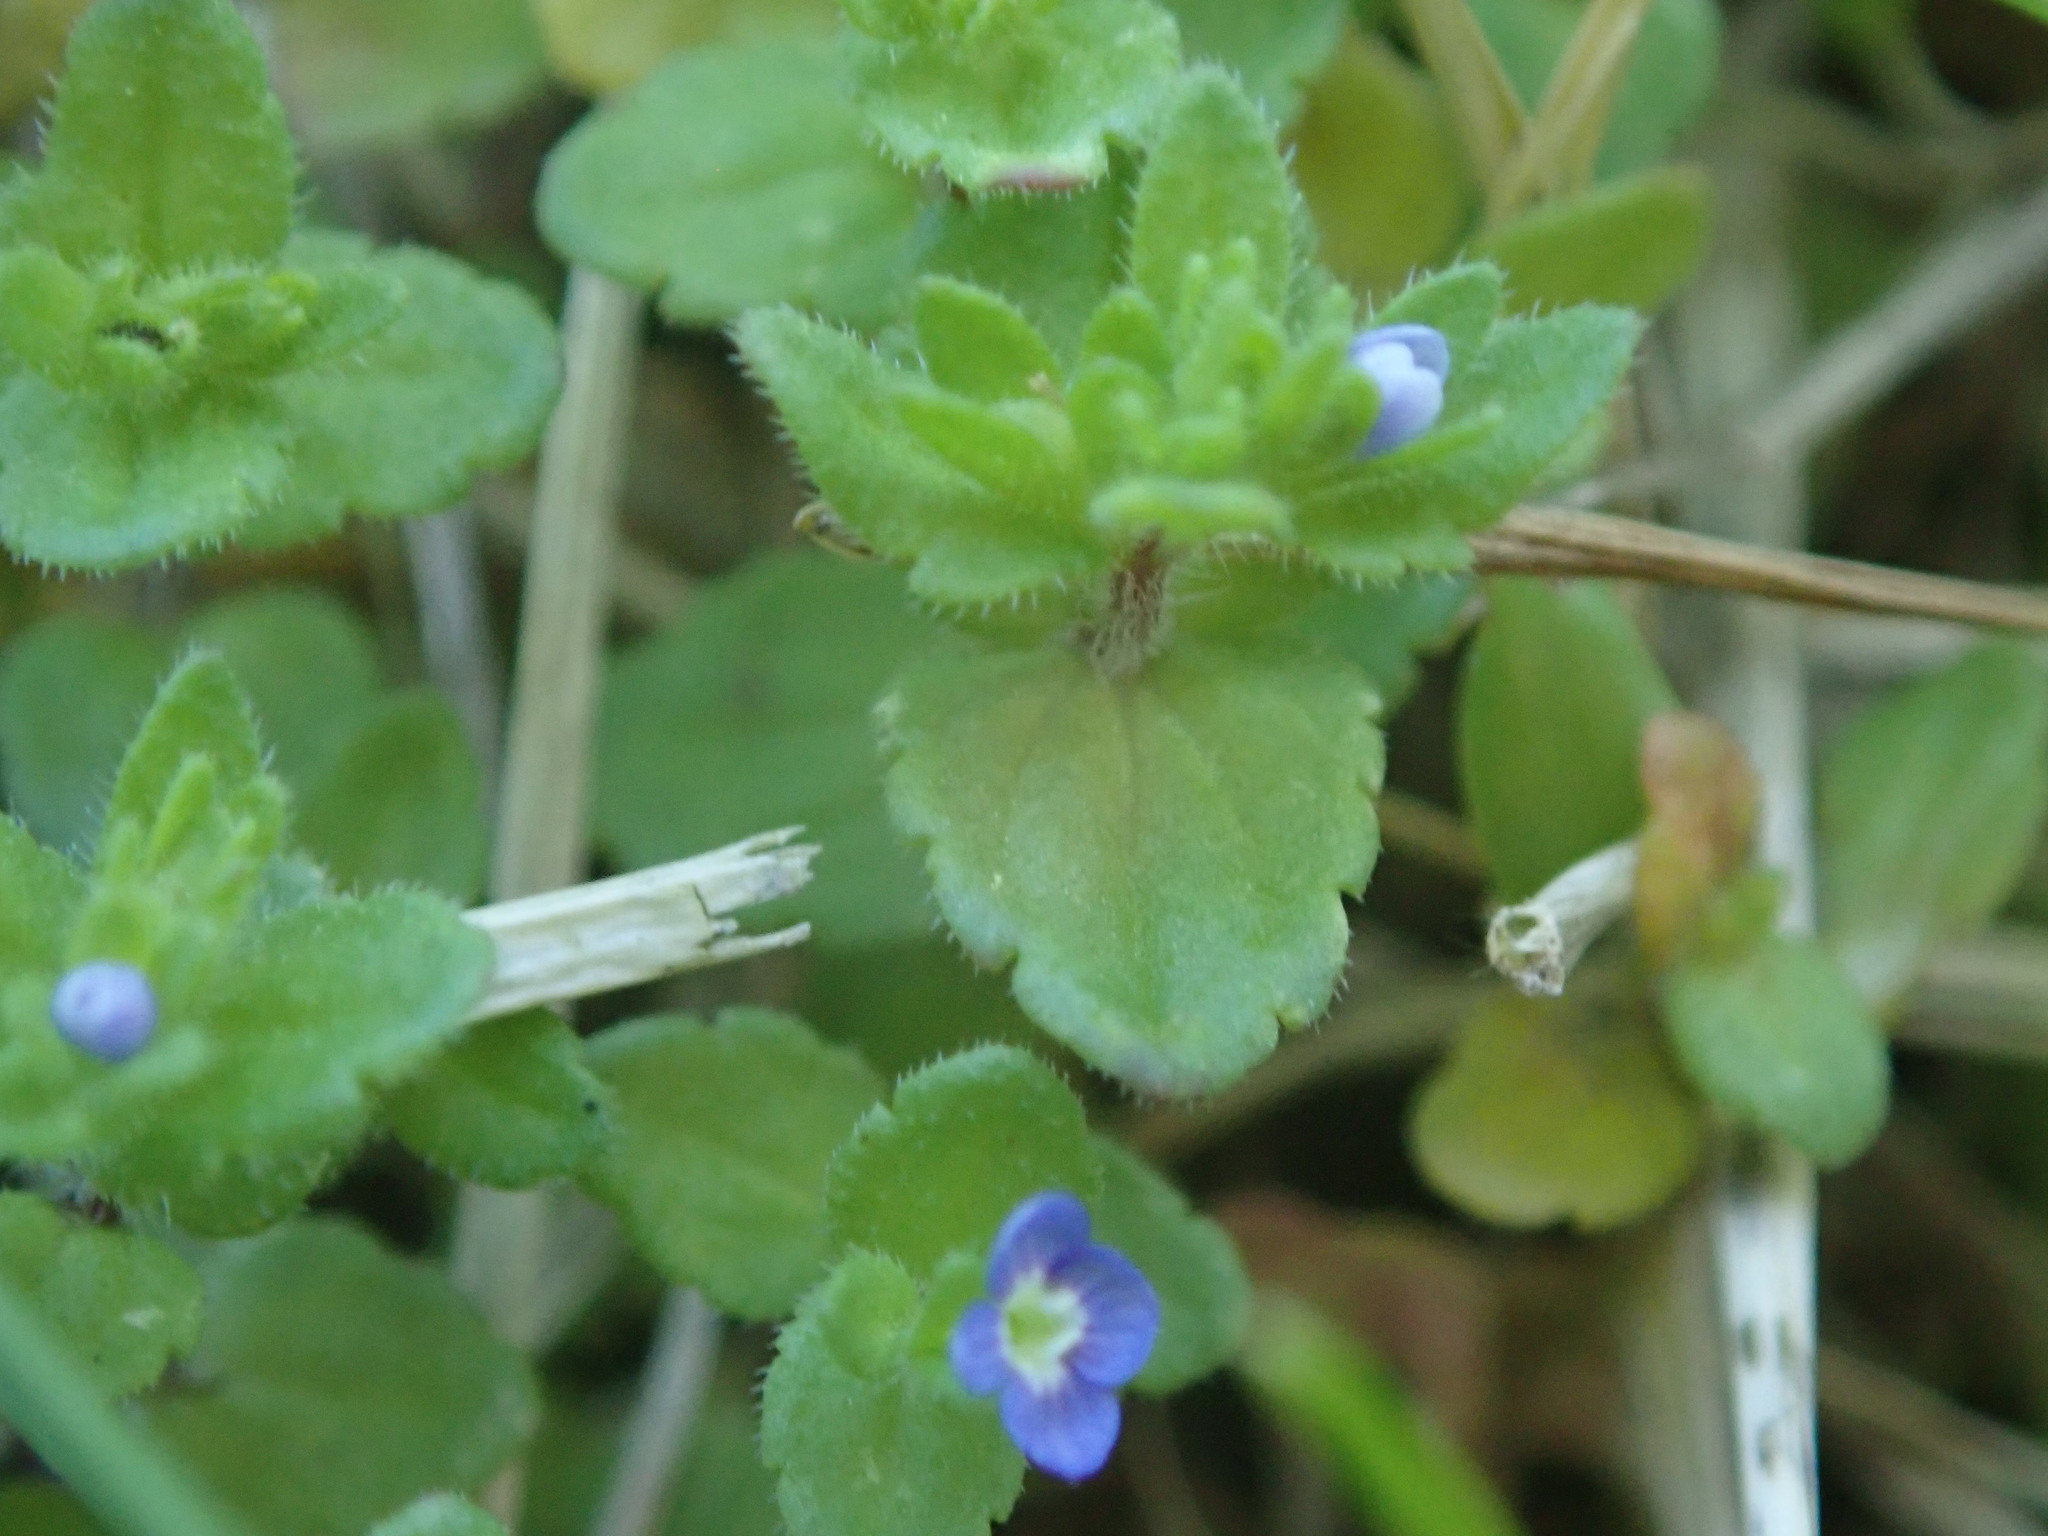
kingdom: Plantae
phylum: Tracheophyta
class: Magnoliopsida
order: Lamiales
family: Plantaginaceae
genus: Veronica
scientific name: Veronica arvensis
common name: Corn speedwell
